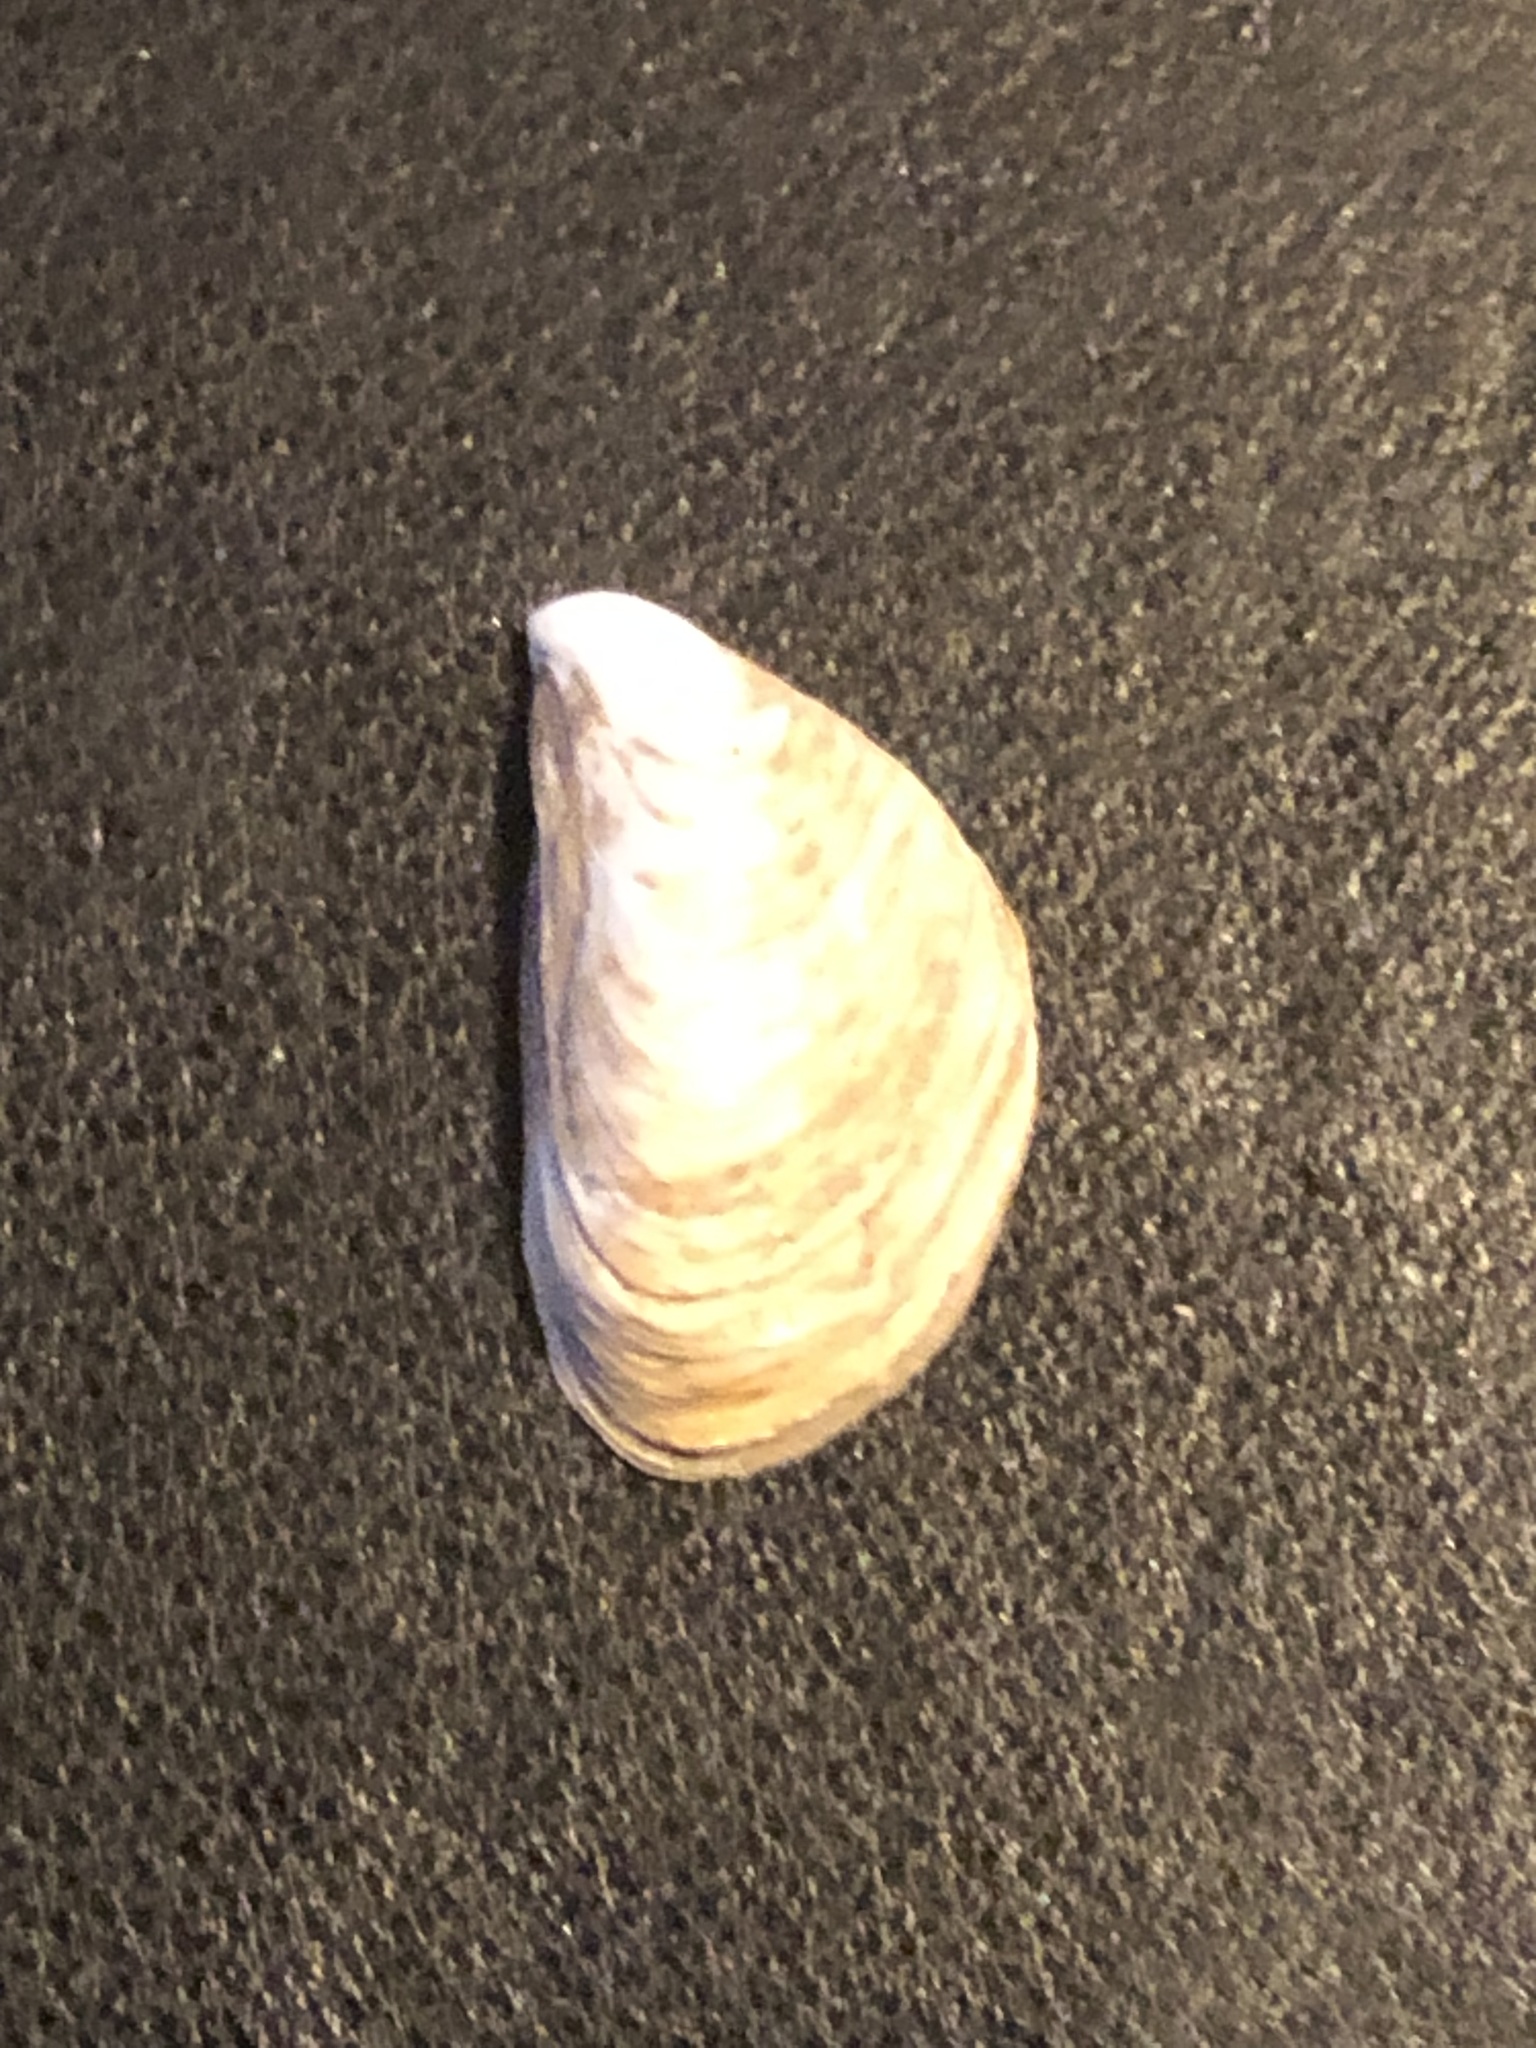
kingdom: Animalia
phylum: Mollusca
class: Bivalvia
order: Myida
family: Dreissenidae
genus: Dreissena
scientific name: Dreissena bugensis
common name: Quagga mussel
